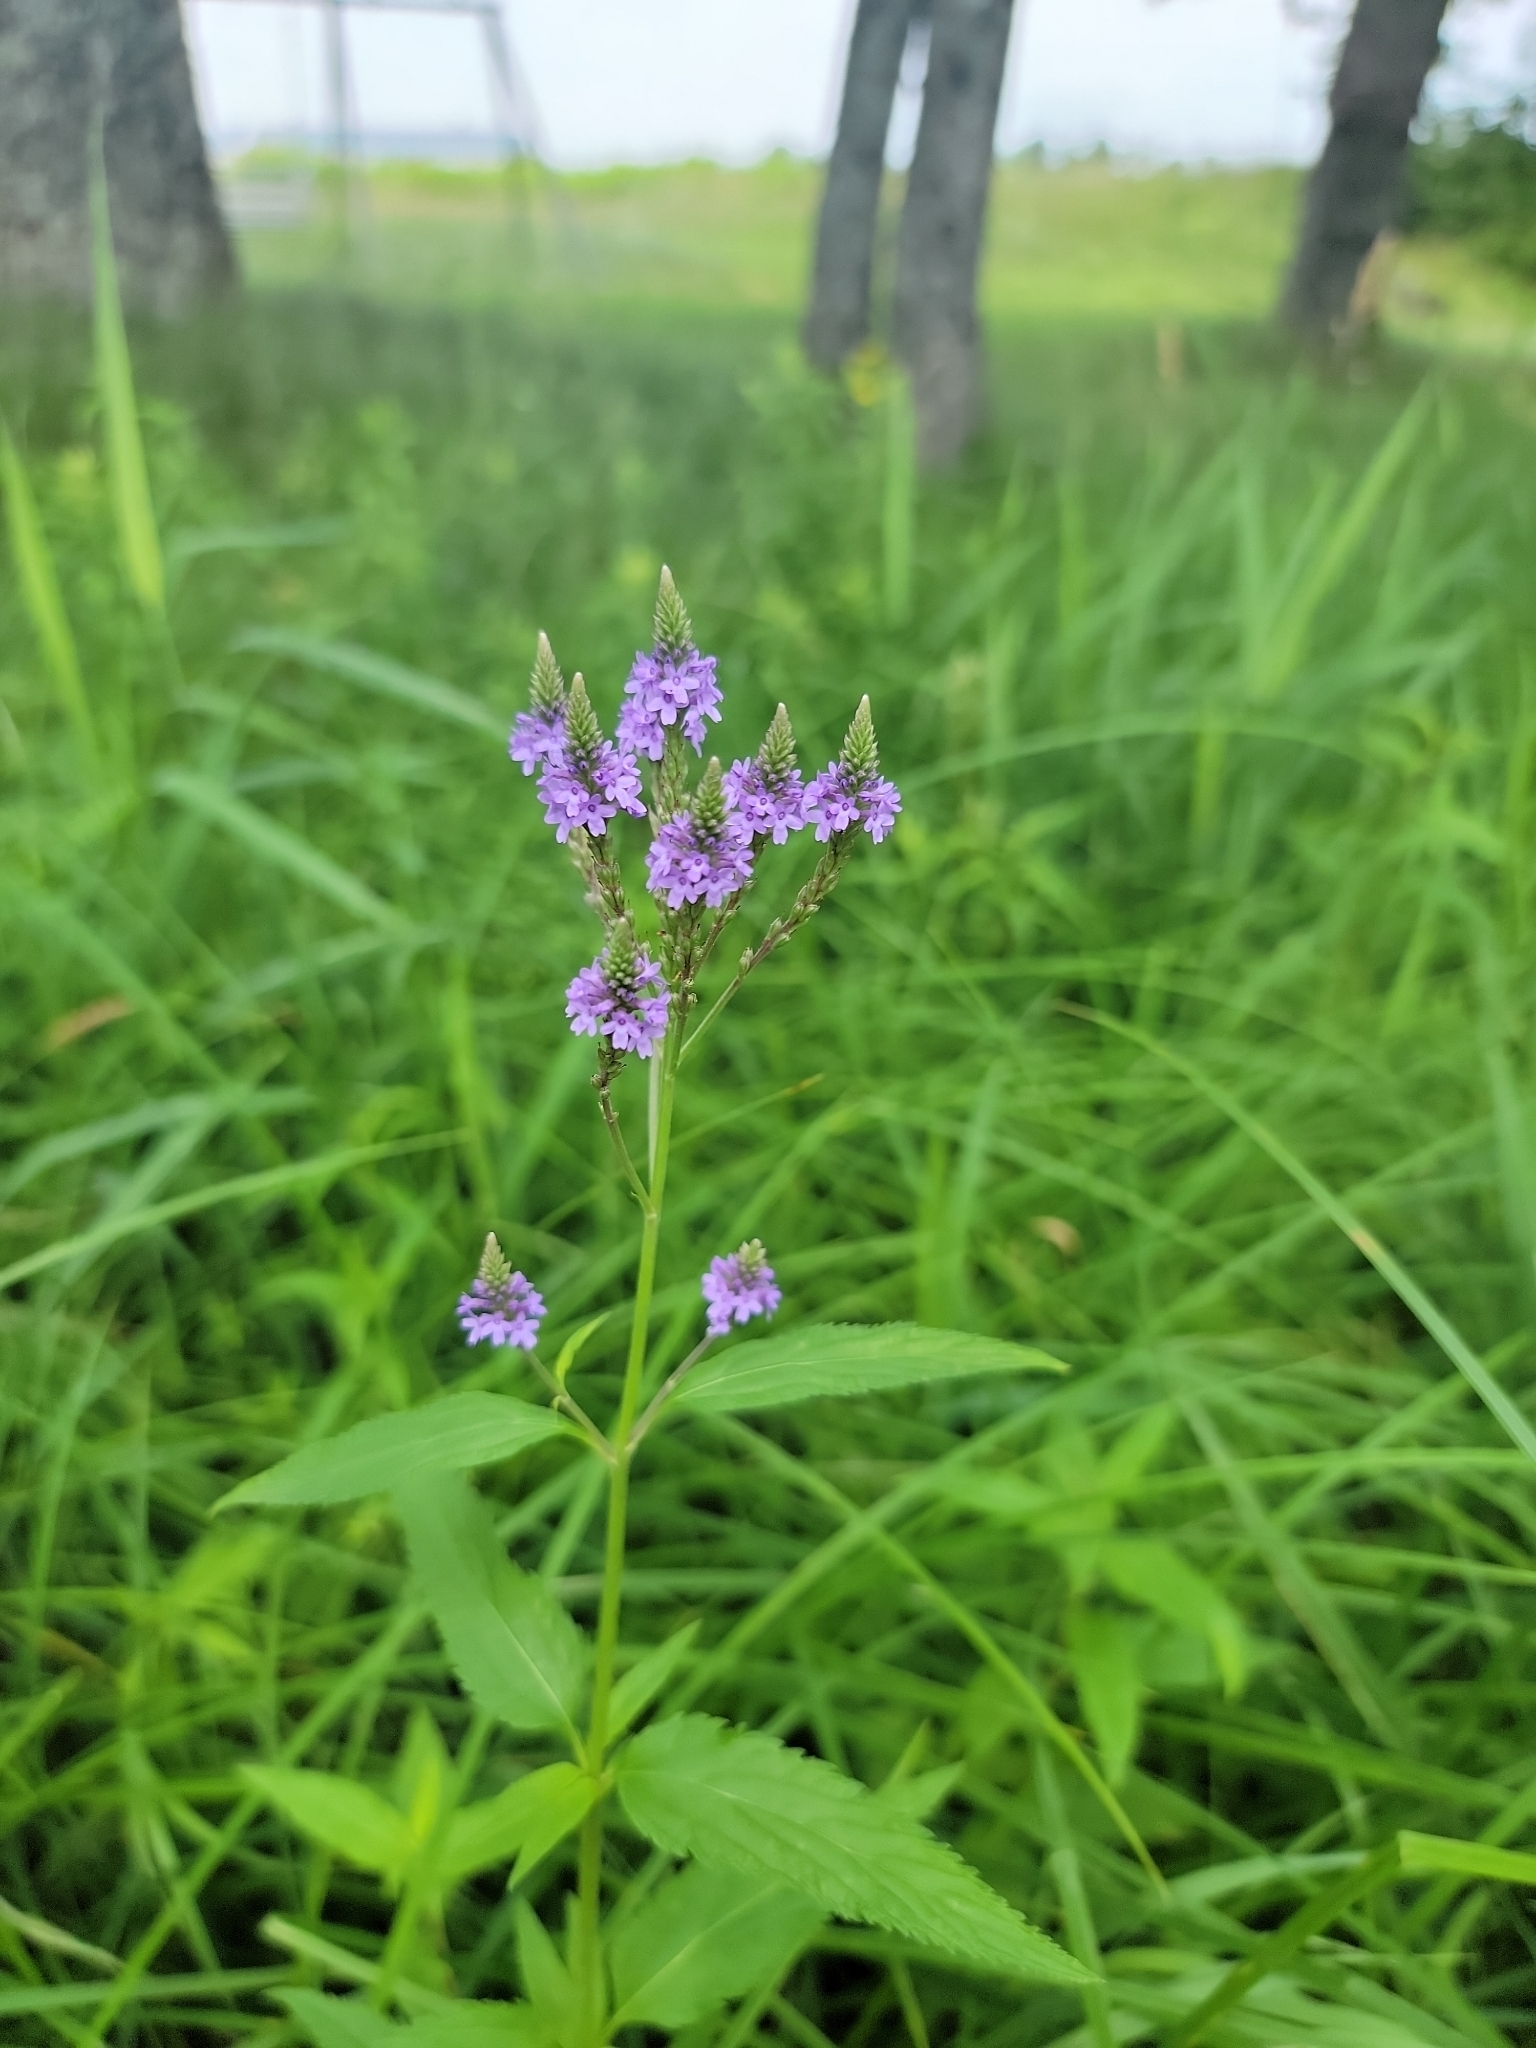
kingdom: Plantae
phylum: Tracheophyta
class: Magnoliopsida
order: Lamiales
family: Verbenaceae
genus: Verbena
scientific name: Verbena hastata
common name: American blue vervain
